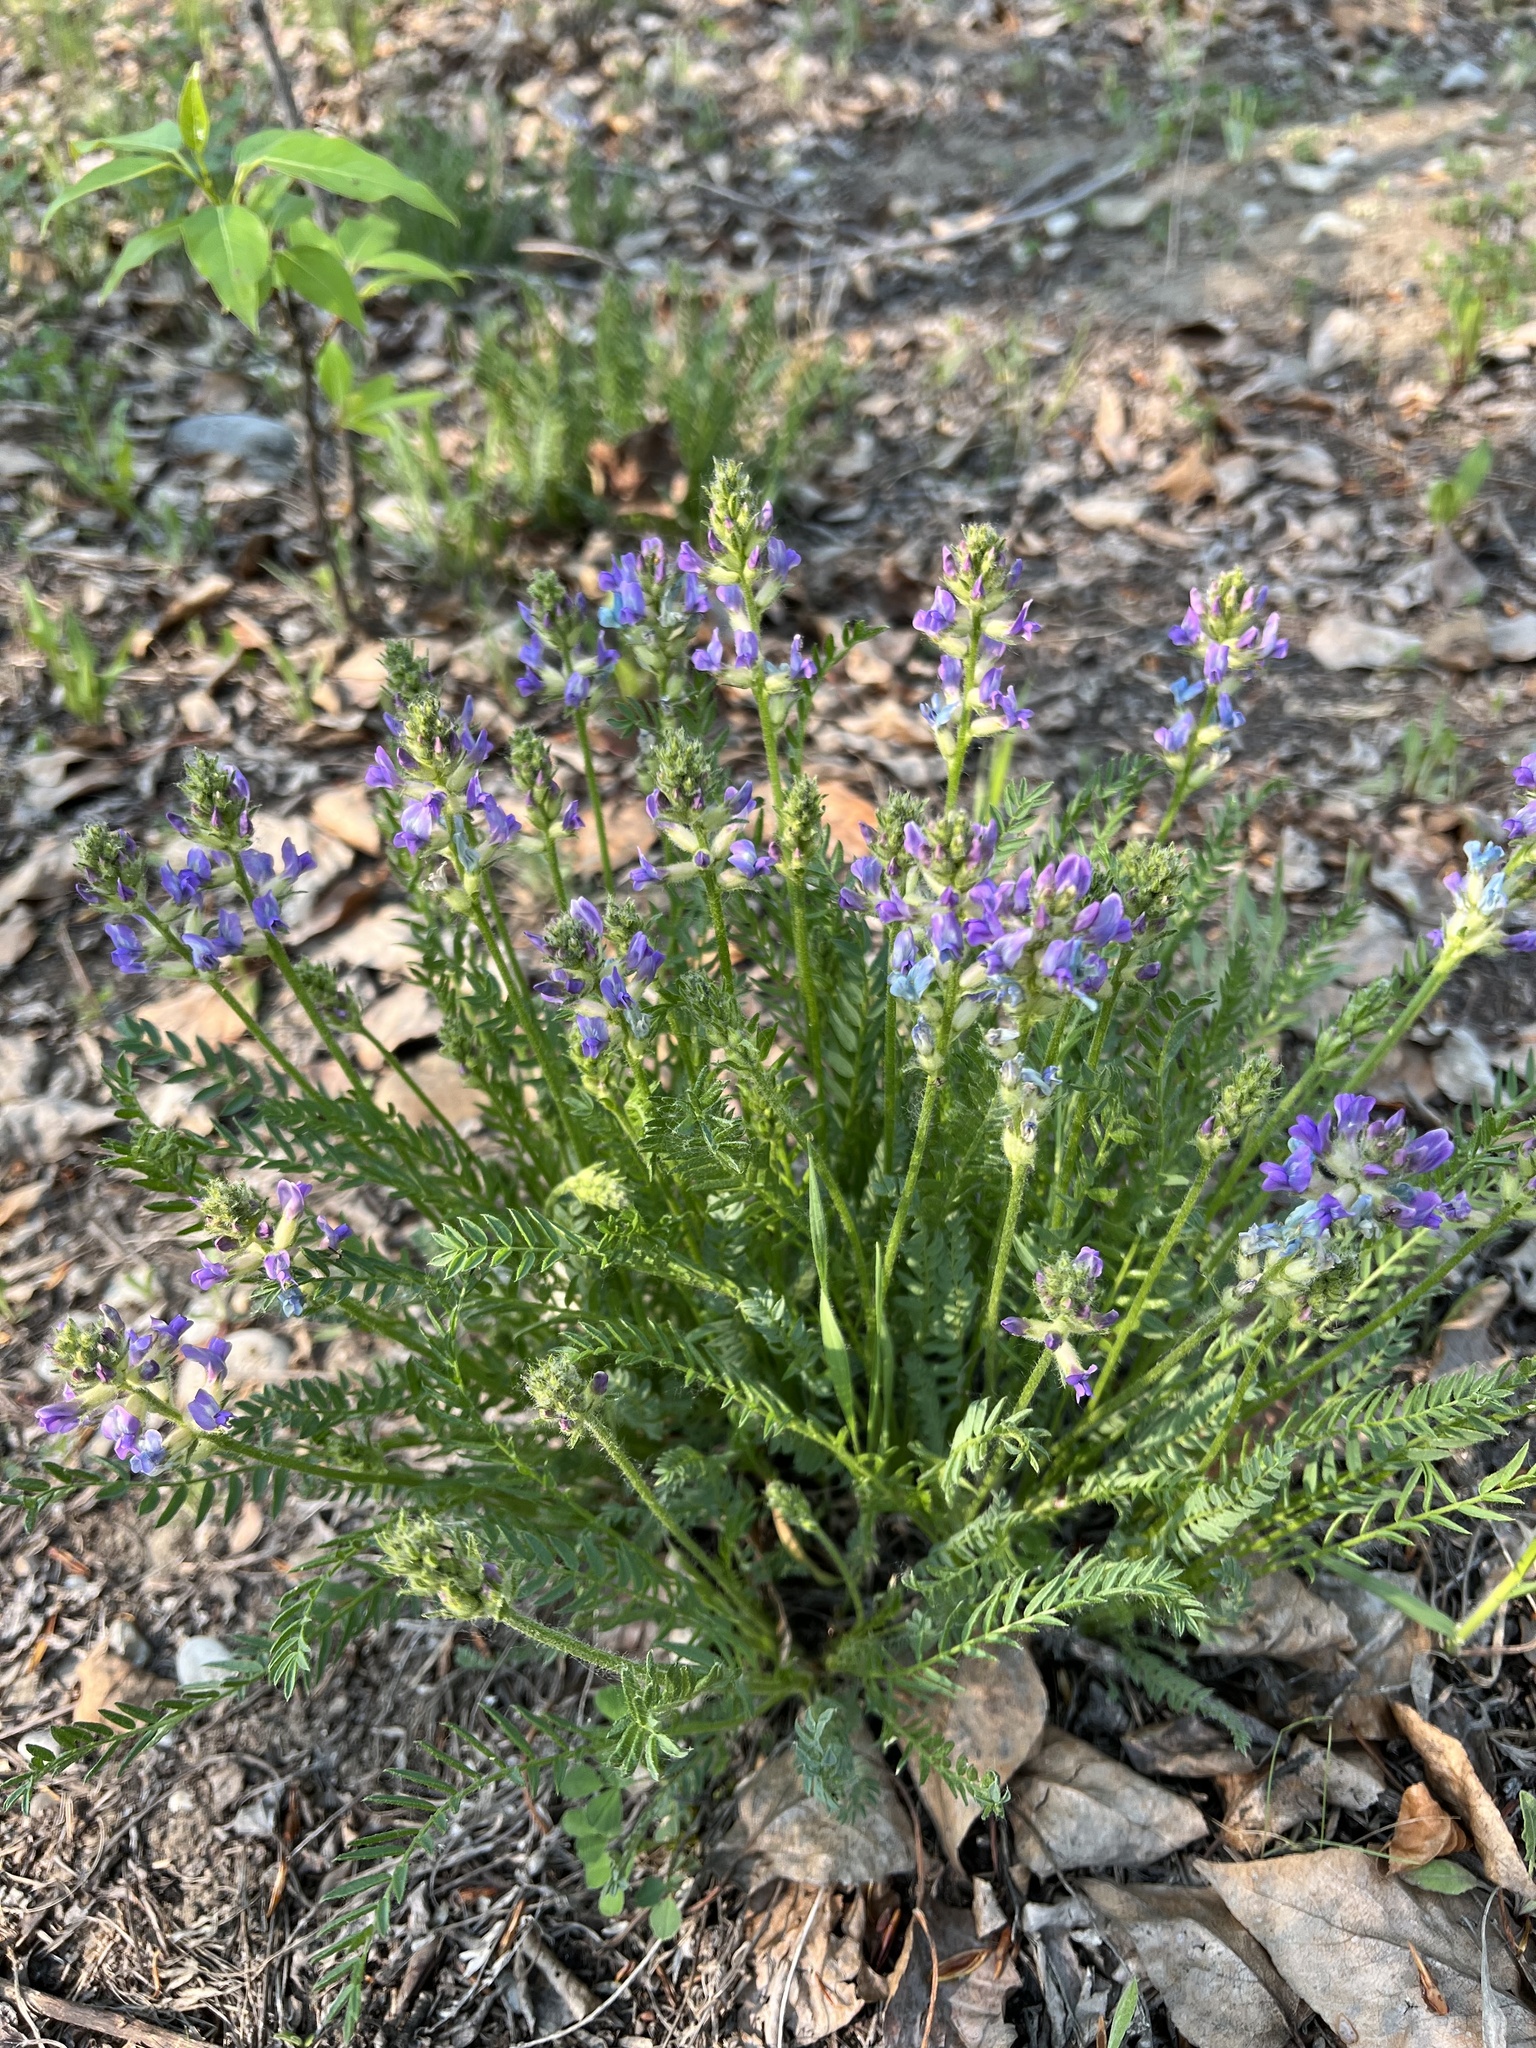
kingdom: Plantae
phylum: Tracheophyta
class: Magnoliopsida
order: Fabales
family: Fabaceae
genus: Oxytropis
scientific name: Oxytropis borealis
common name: Boreal locoweed
